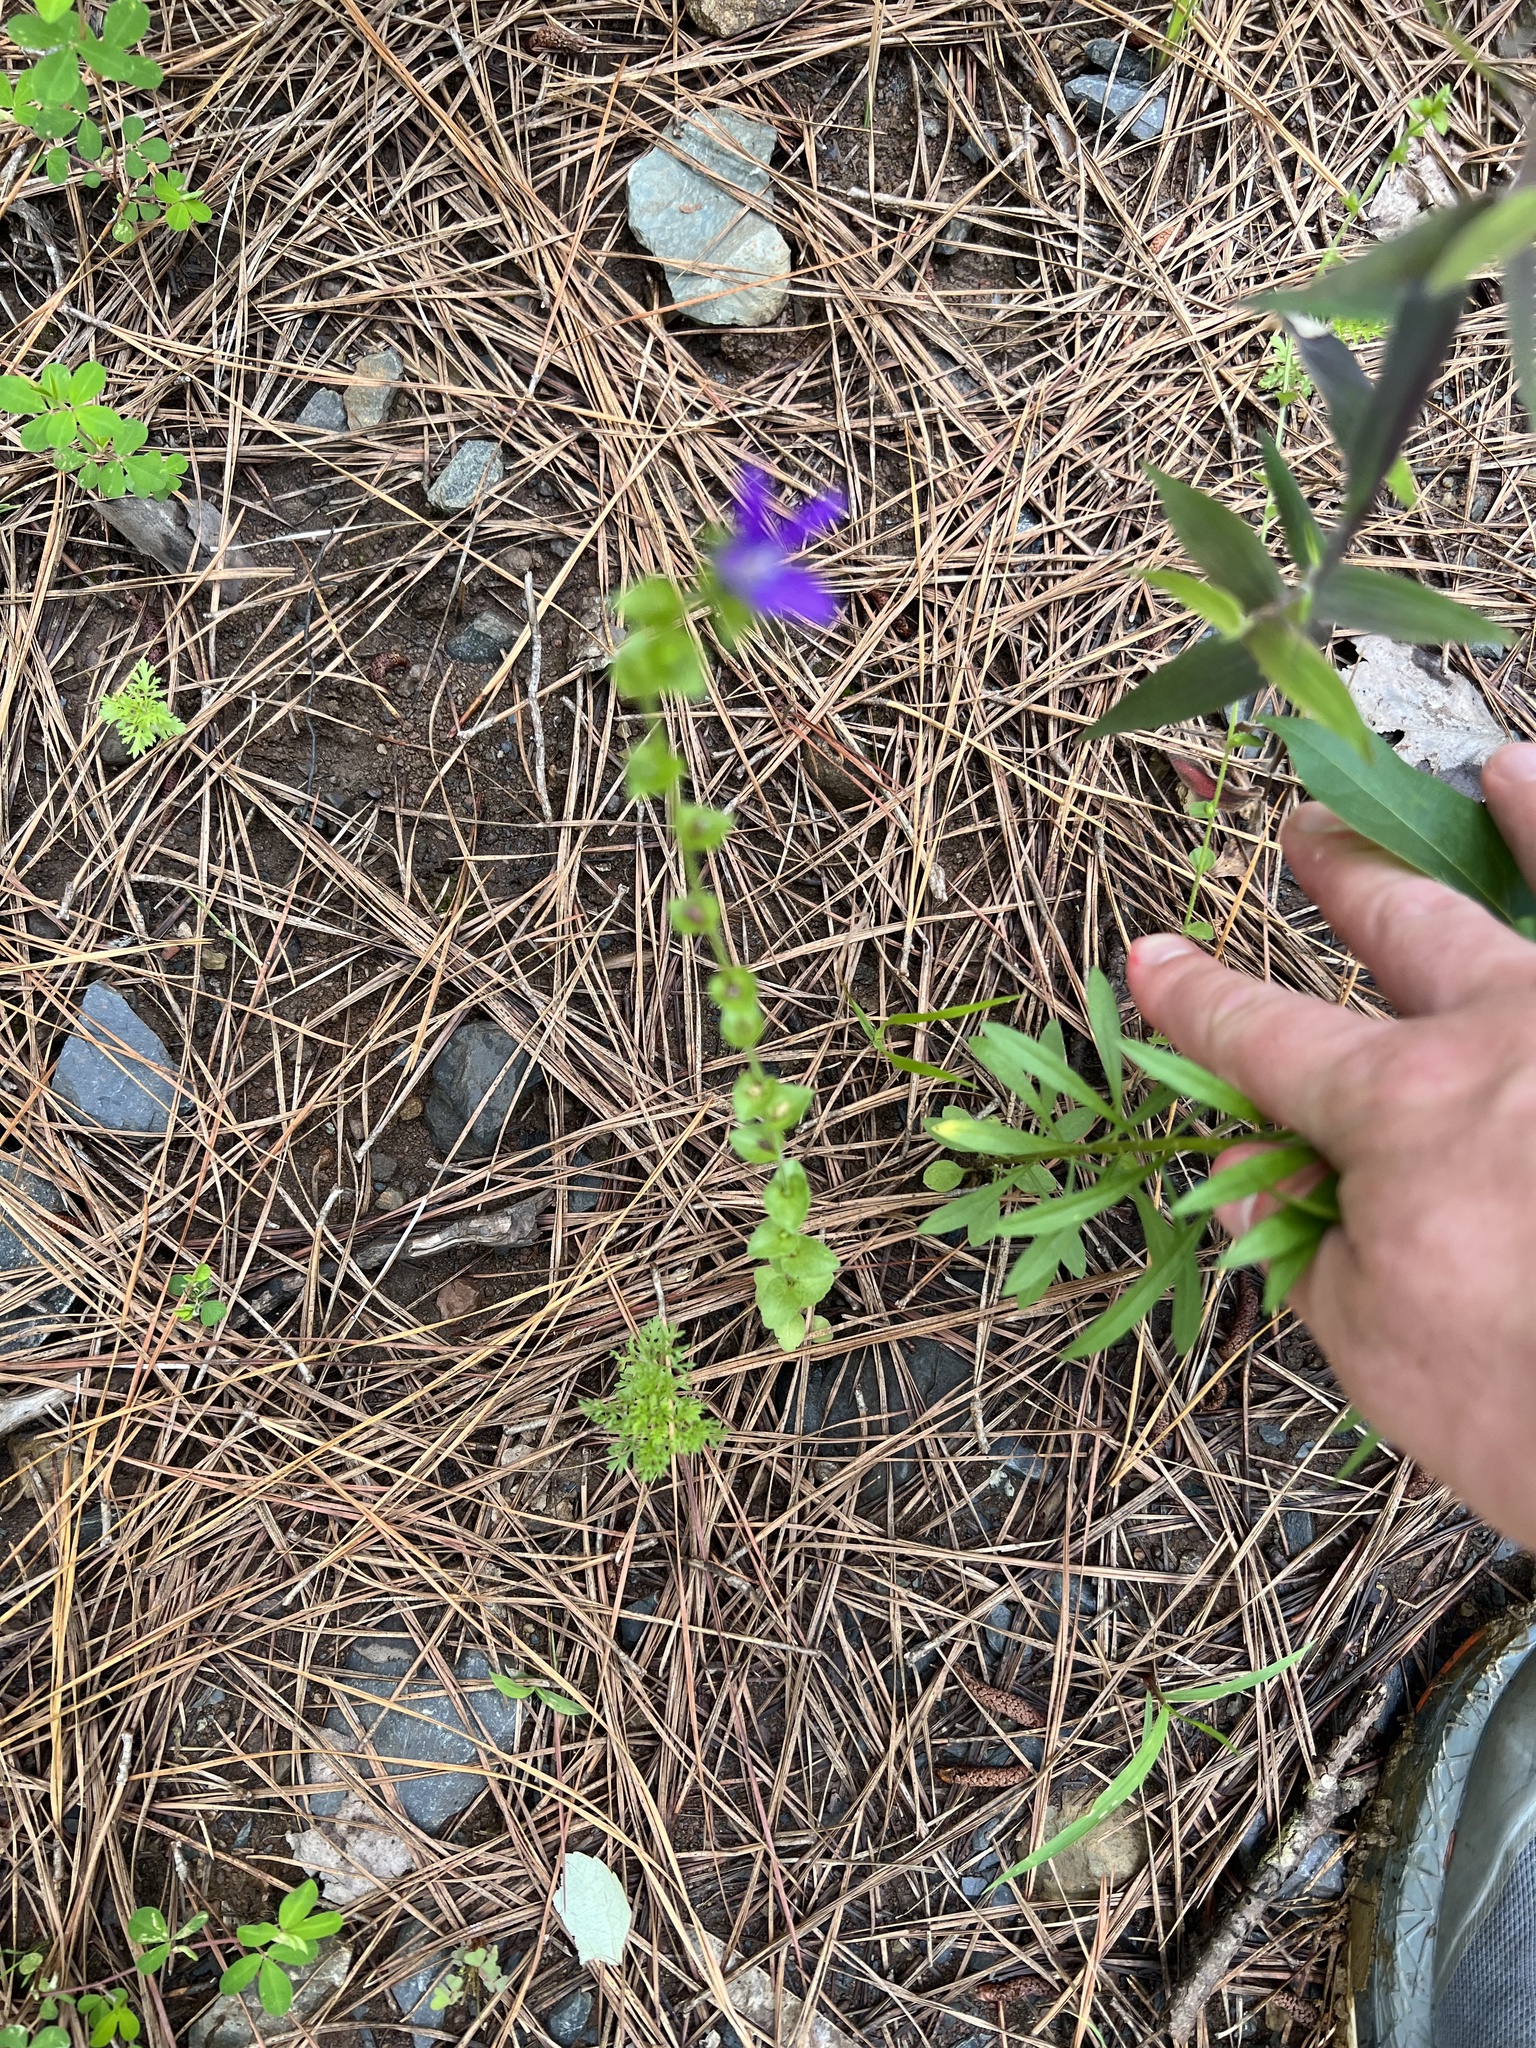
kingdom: Plantae
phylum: Tracheophyta
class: Magnoliopsida
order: Asterales
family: Campanulaceae
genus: Triodanis
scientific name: Triodanis perfoliata
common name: Clasping venus' looking-glass
